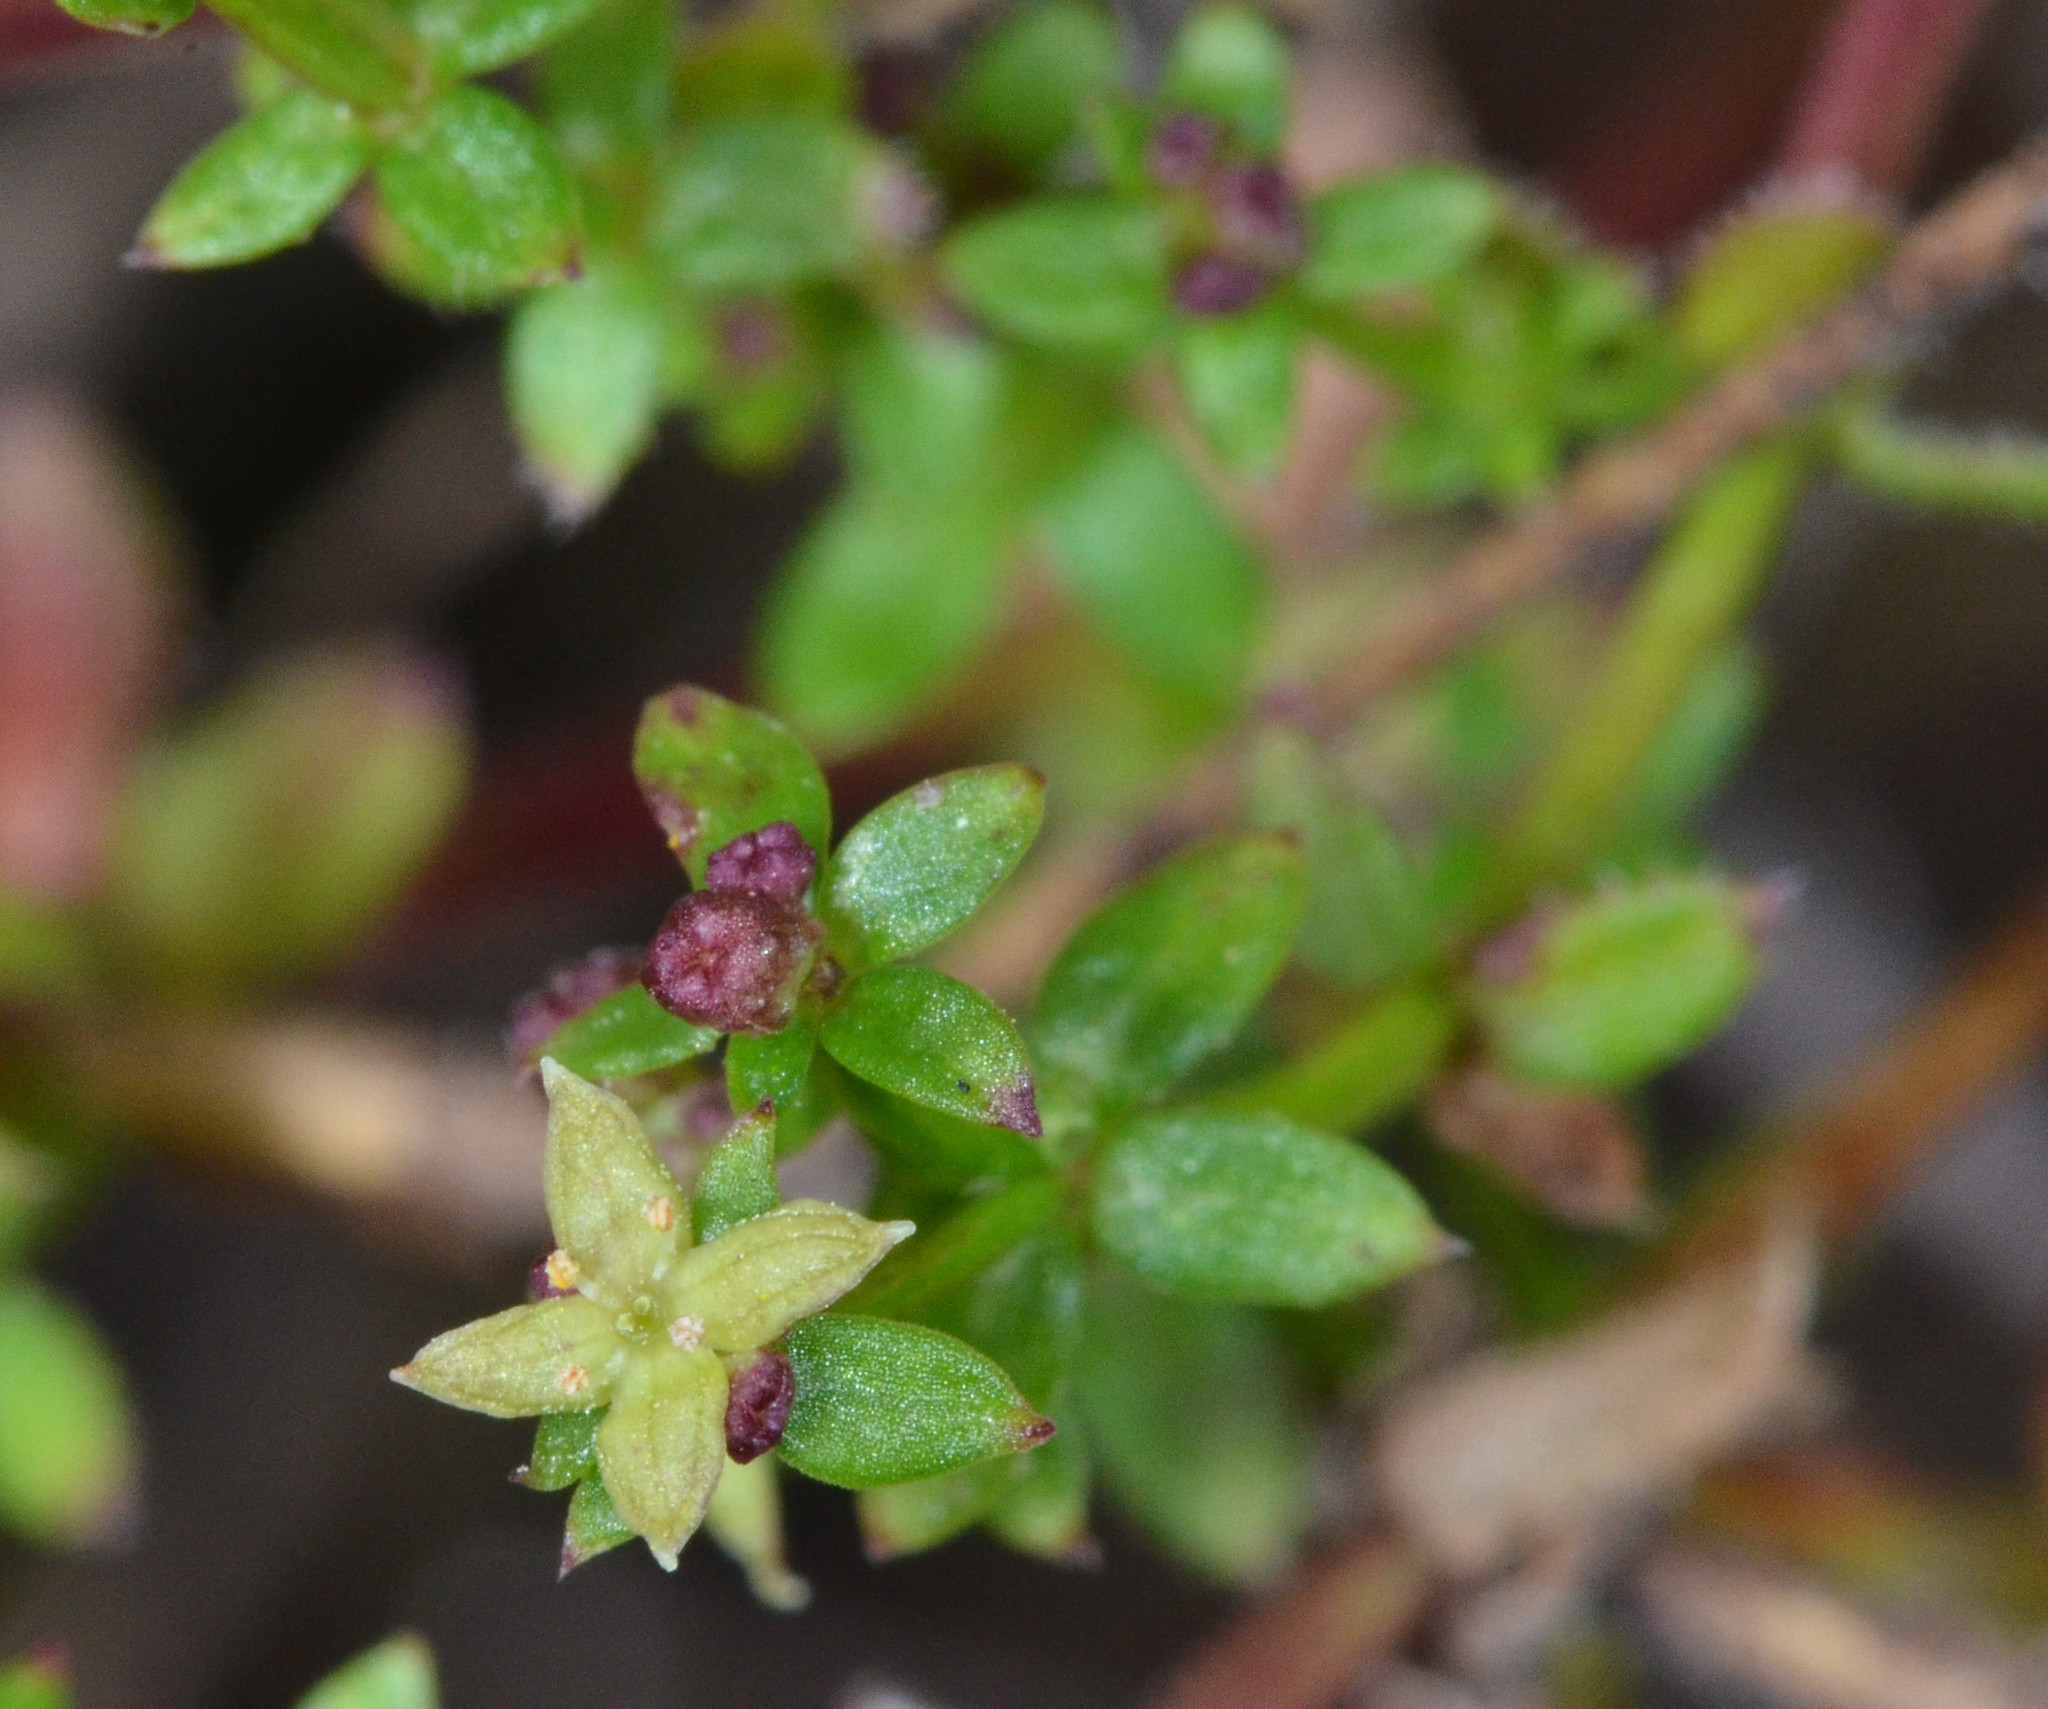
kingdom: Plantae
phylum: Tracheophyta
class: Magnoliopsida
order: Gentianales
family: Rubiaceae
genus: Galium
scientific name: Galium californicum
